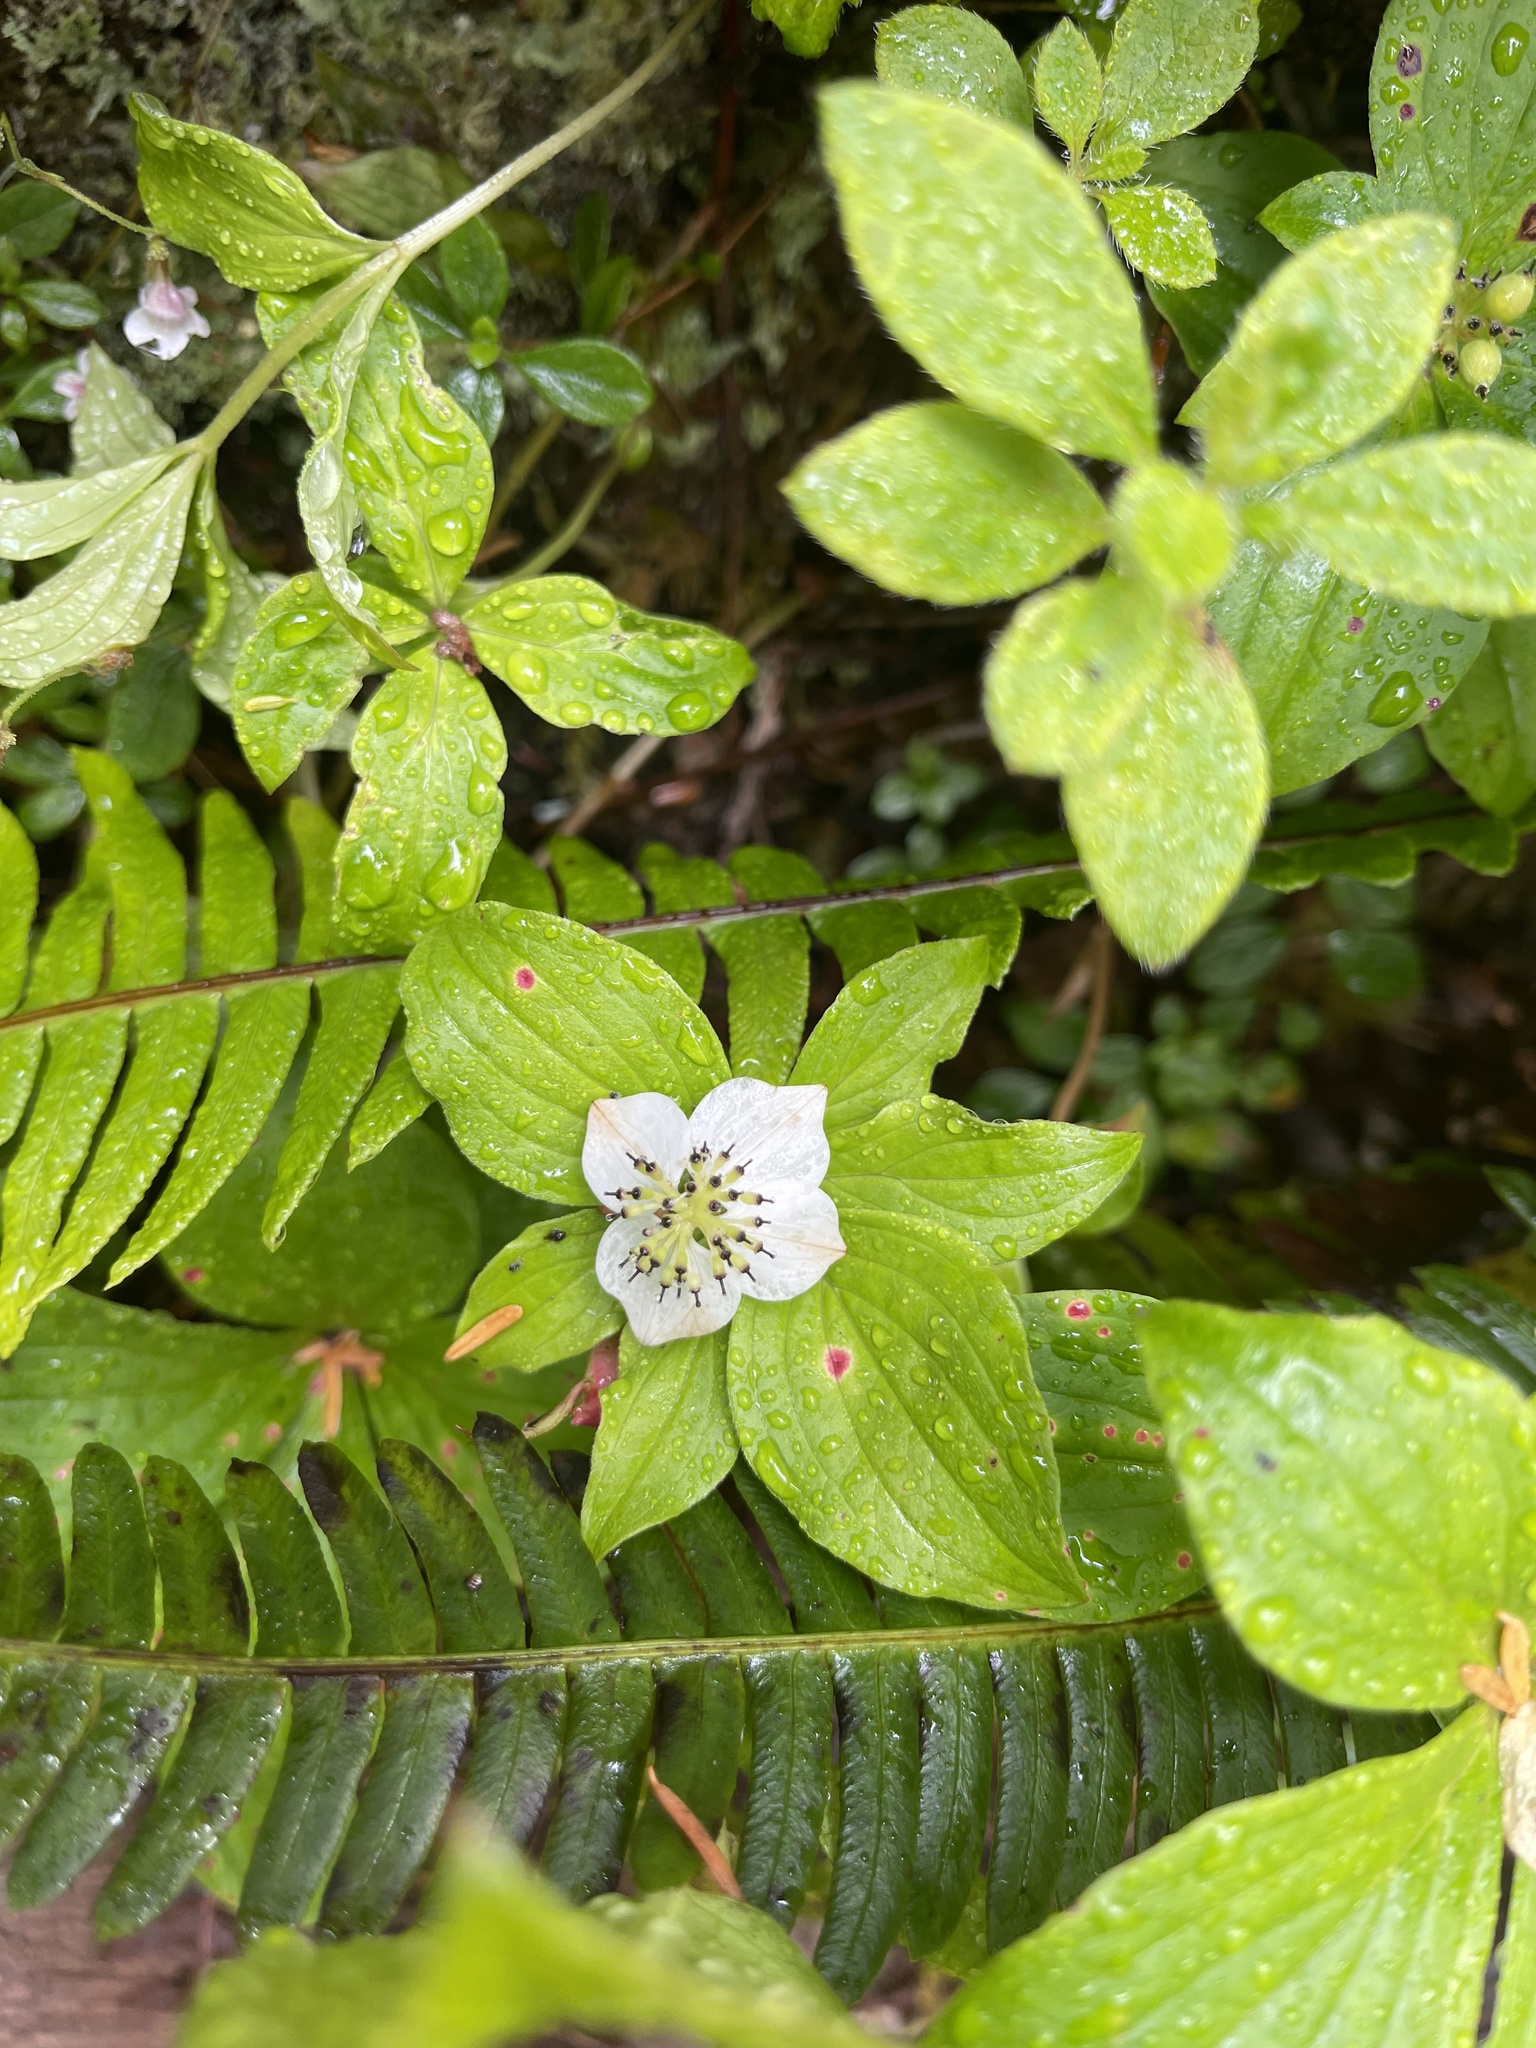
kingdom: Plantae
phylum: Tracheophyta
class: Magnoliopsida
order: Cornales
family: Cornaceae
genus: Cornus
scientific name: Cornus unalaschkensis
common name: Alaska bunchberry
